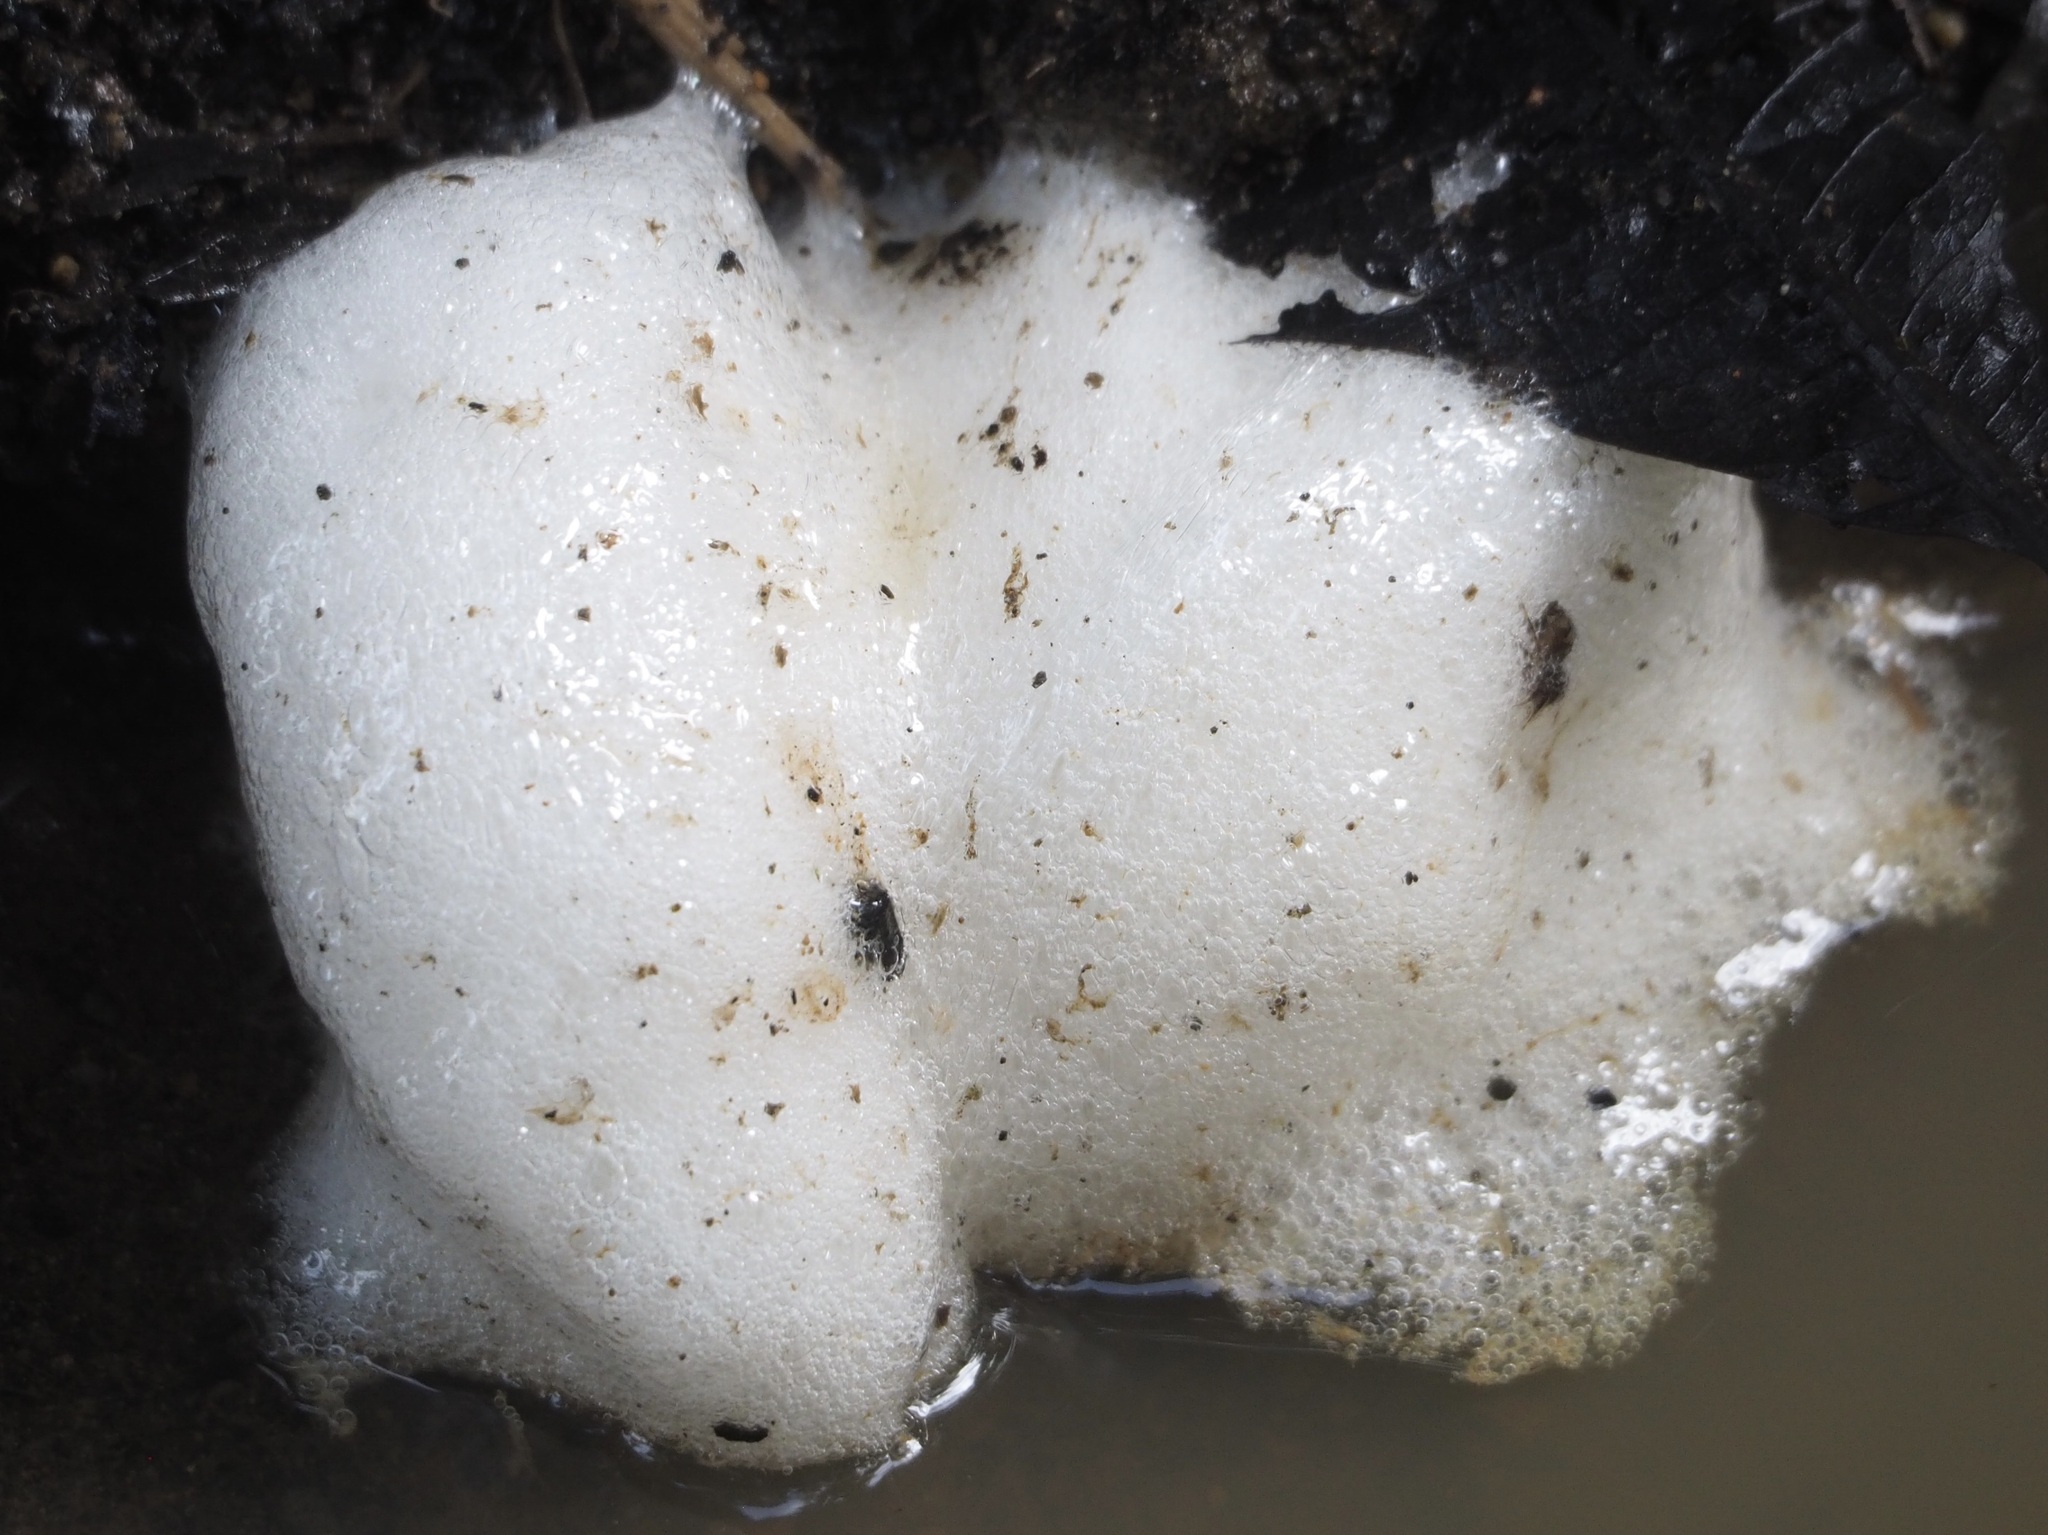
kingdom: Animalia
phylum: Chordata
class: Amphibia
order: Anura
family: Leptodactylidae
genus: Engystomops
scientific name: Engystomops pustulosus
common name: Tungara frog
